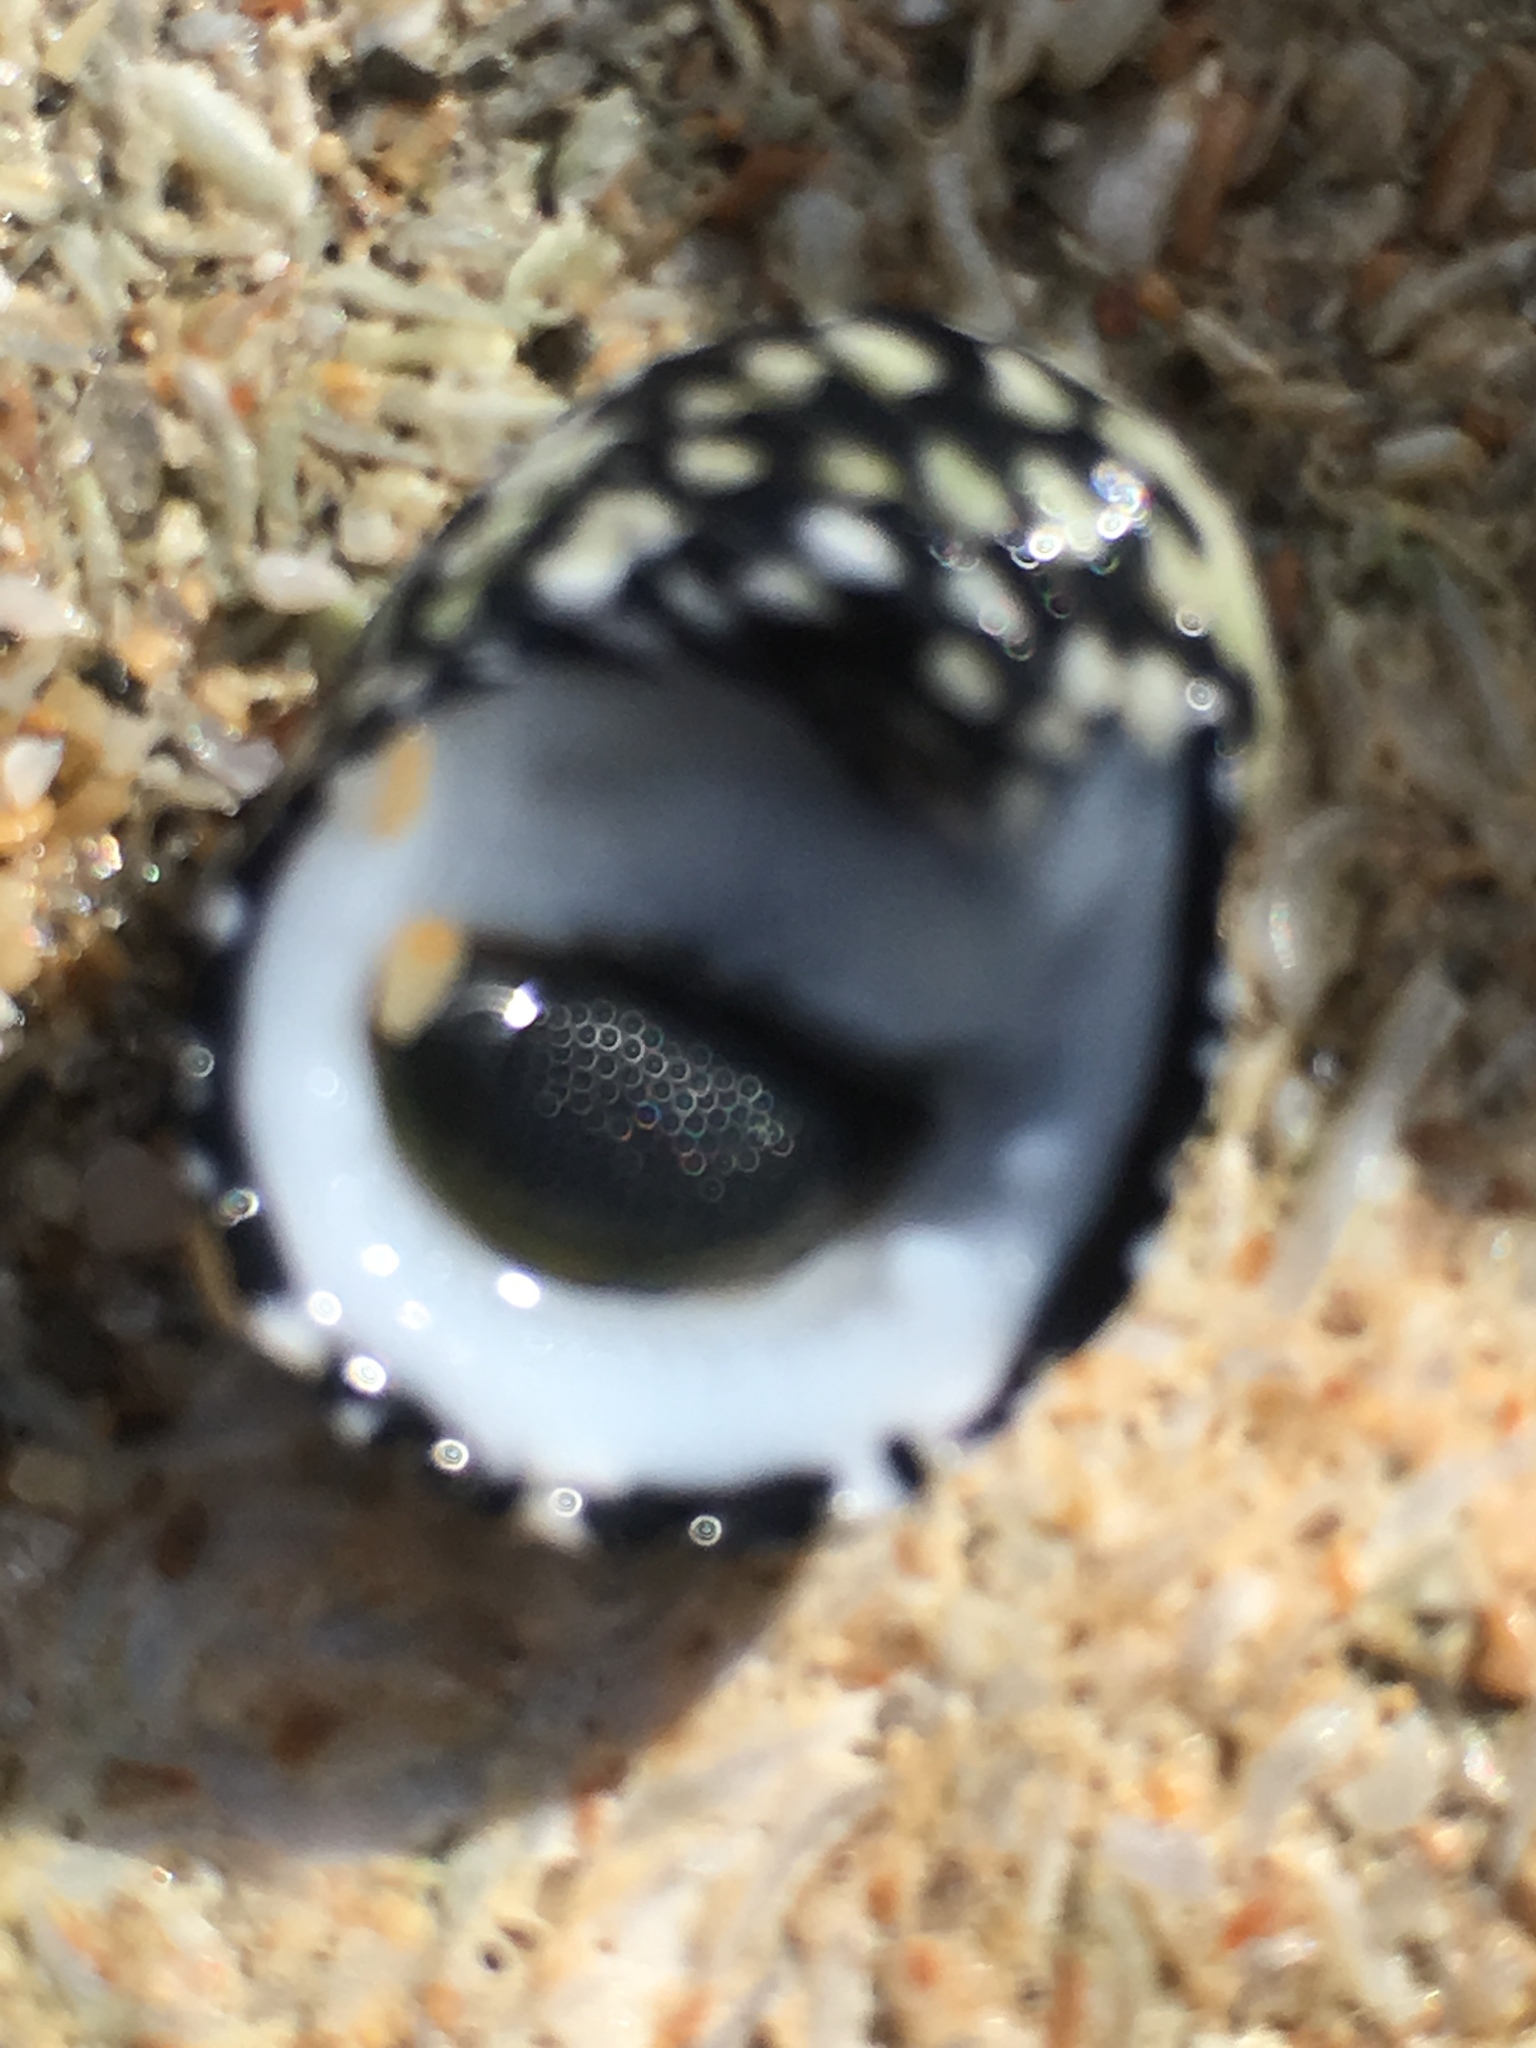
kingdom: Animalia
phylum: Mollusca
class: Gastropoda
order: Cycloneritida
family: Neritidae
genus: Nerita
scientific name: Nerita tessellata
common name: Checkered nerite
